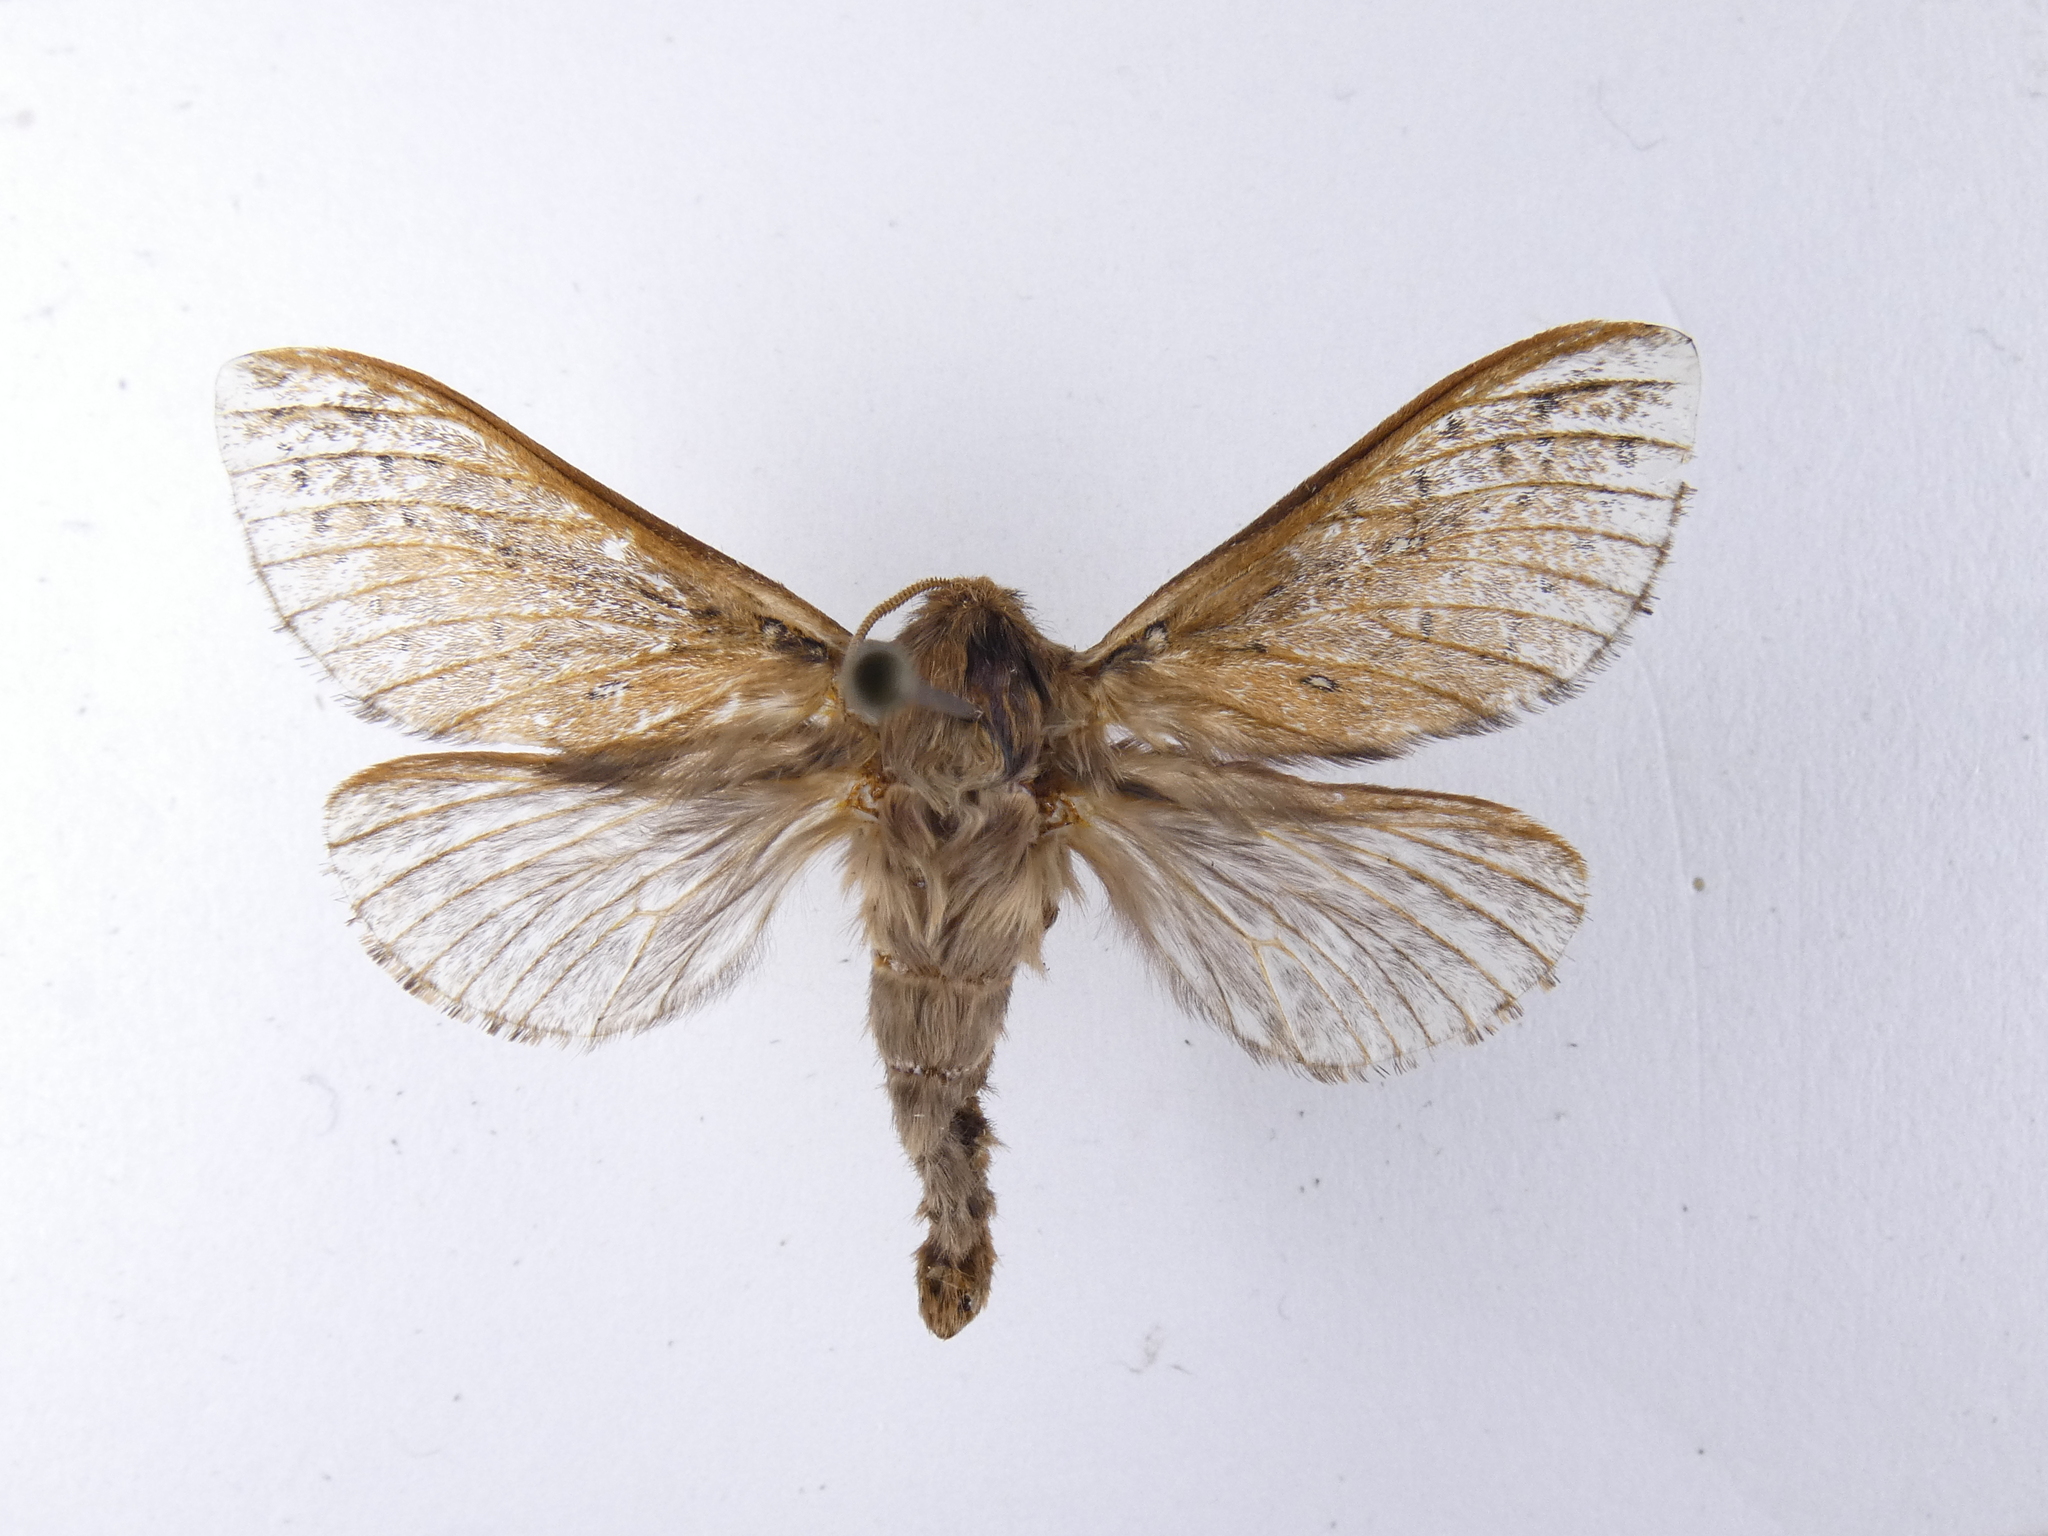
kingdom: Animalia
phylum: Arthropoda
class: Insecta
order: Lepidoptera
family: Hepialidae
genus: Wiseana
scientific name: Wiseana cervinata
